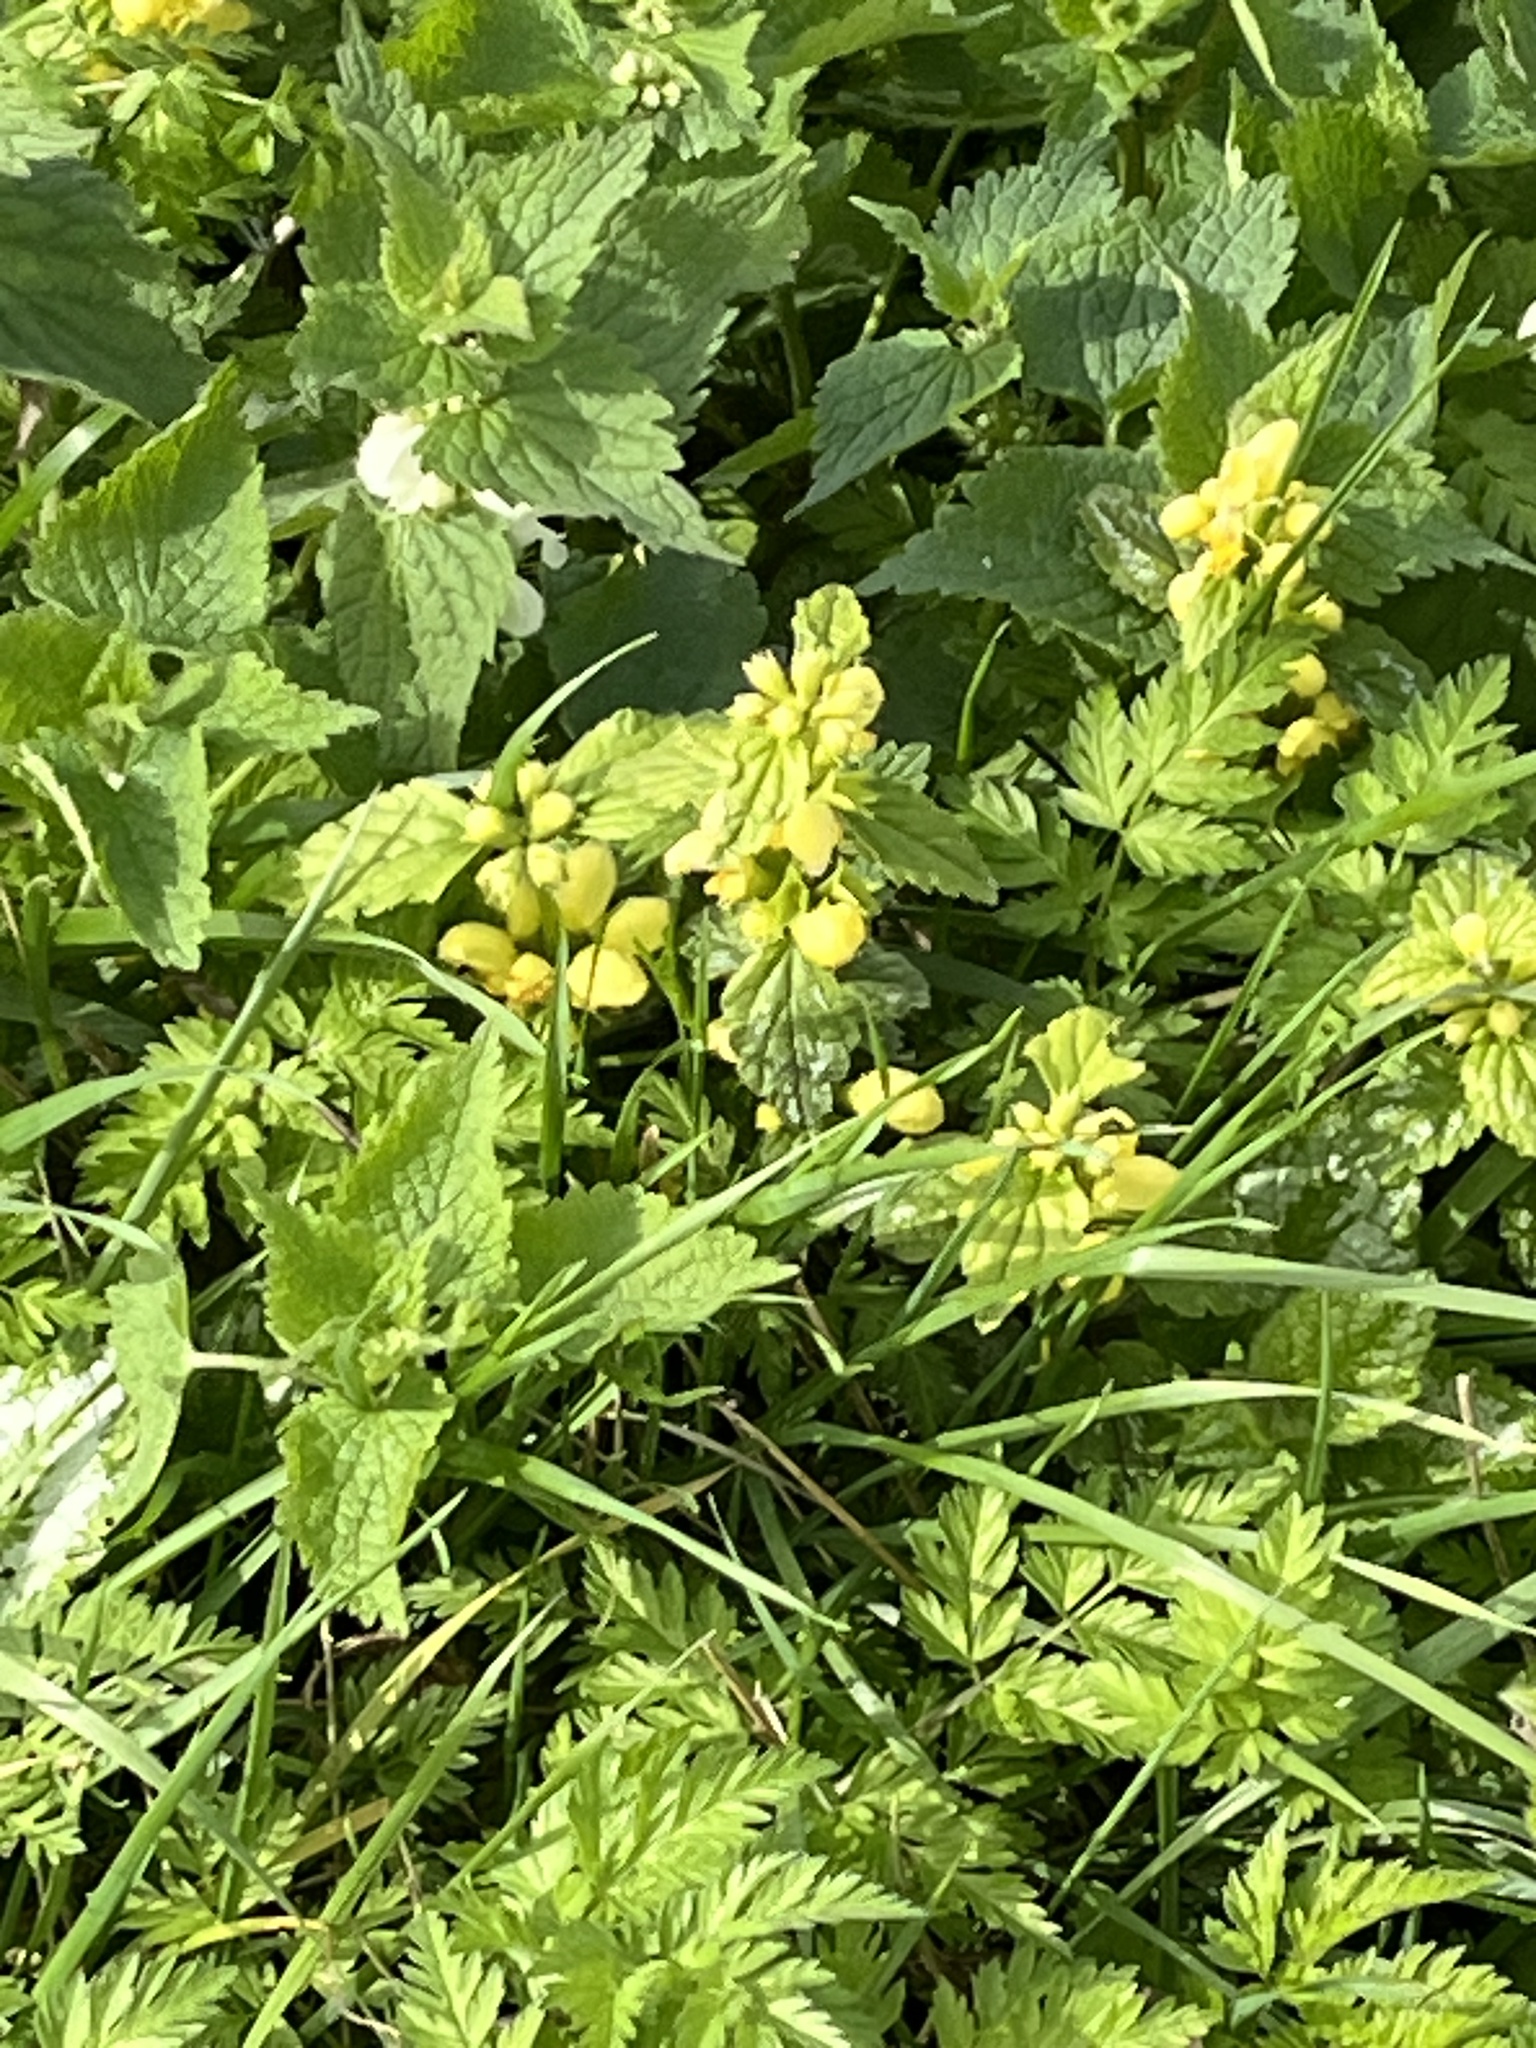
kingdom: Plantae
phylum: Tracheophyta
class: Magnoliopsida
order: Lamiales
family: Lamiaceae
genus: Lamium
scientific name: Lamium galeobdolon
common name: Yellow archangel
